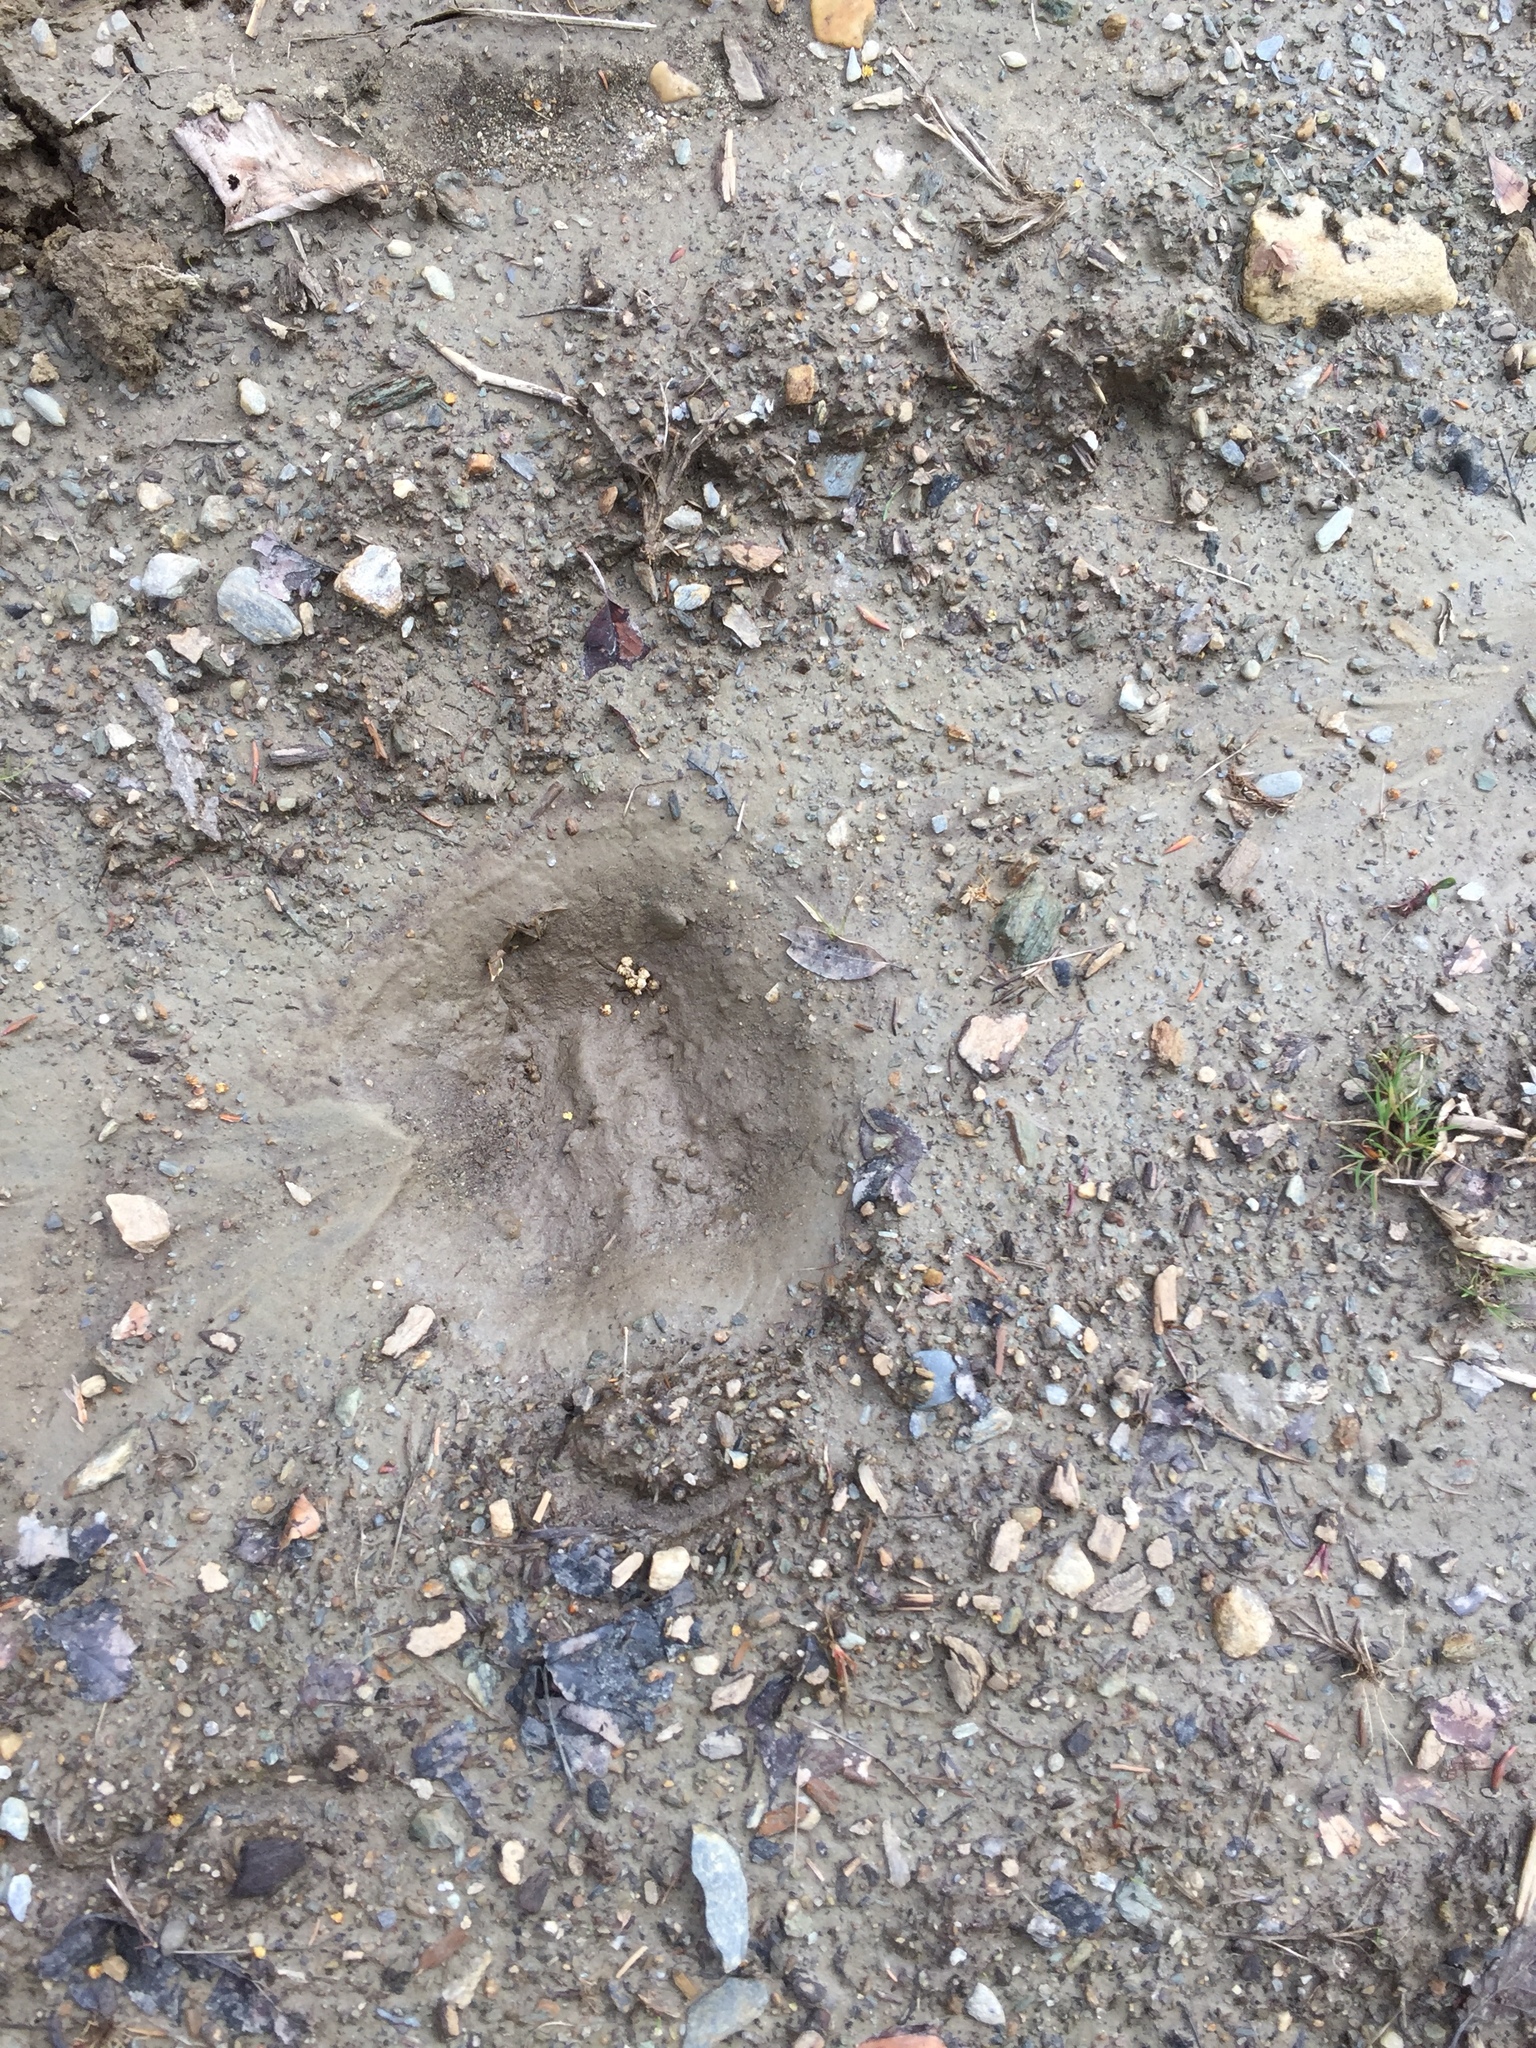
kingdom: Animalia
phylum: Chordata
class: Mammalia
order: Artiodactyla
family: Cervidae
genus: Alces
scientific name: Alces alces
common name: Moose
